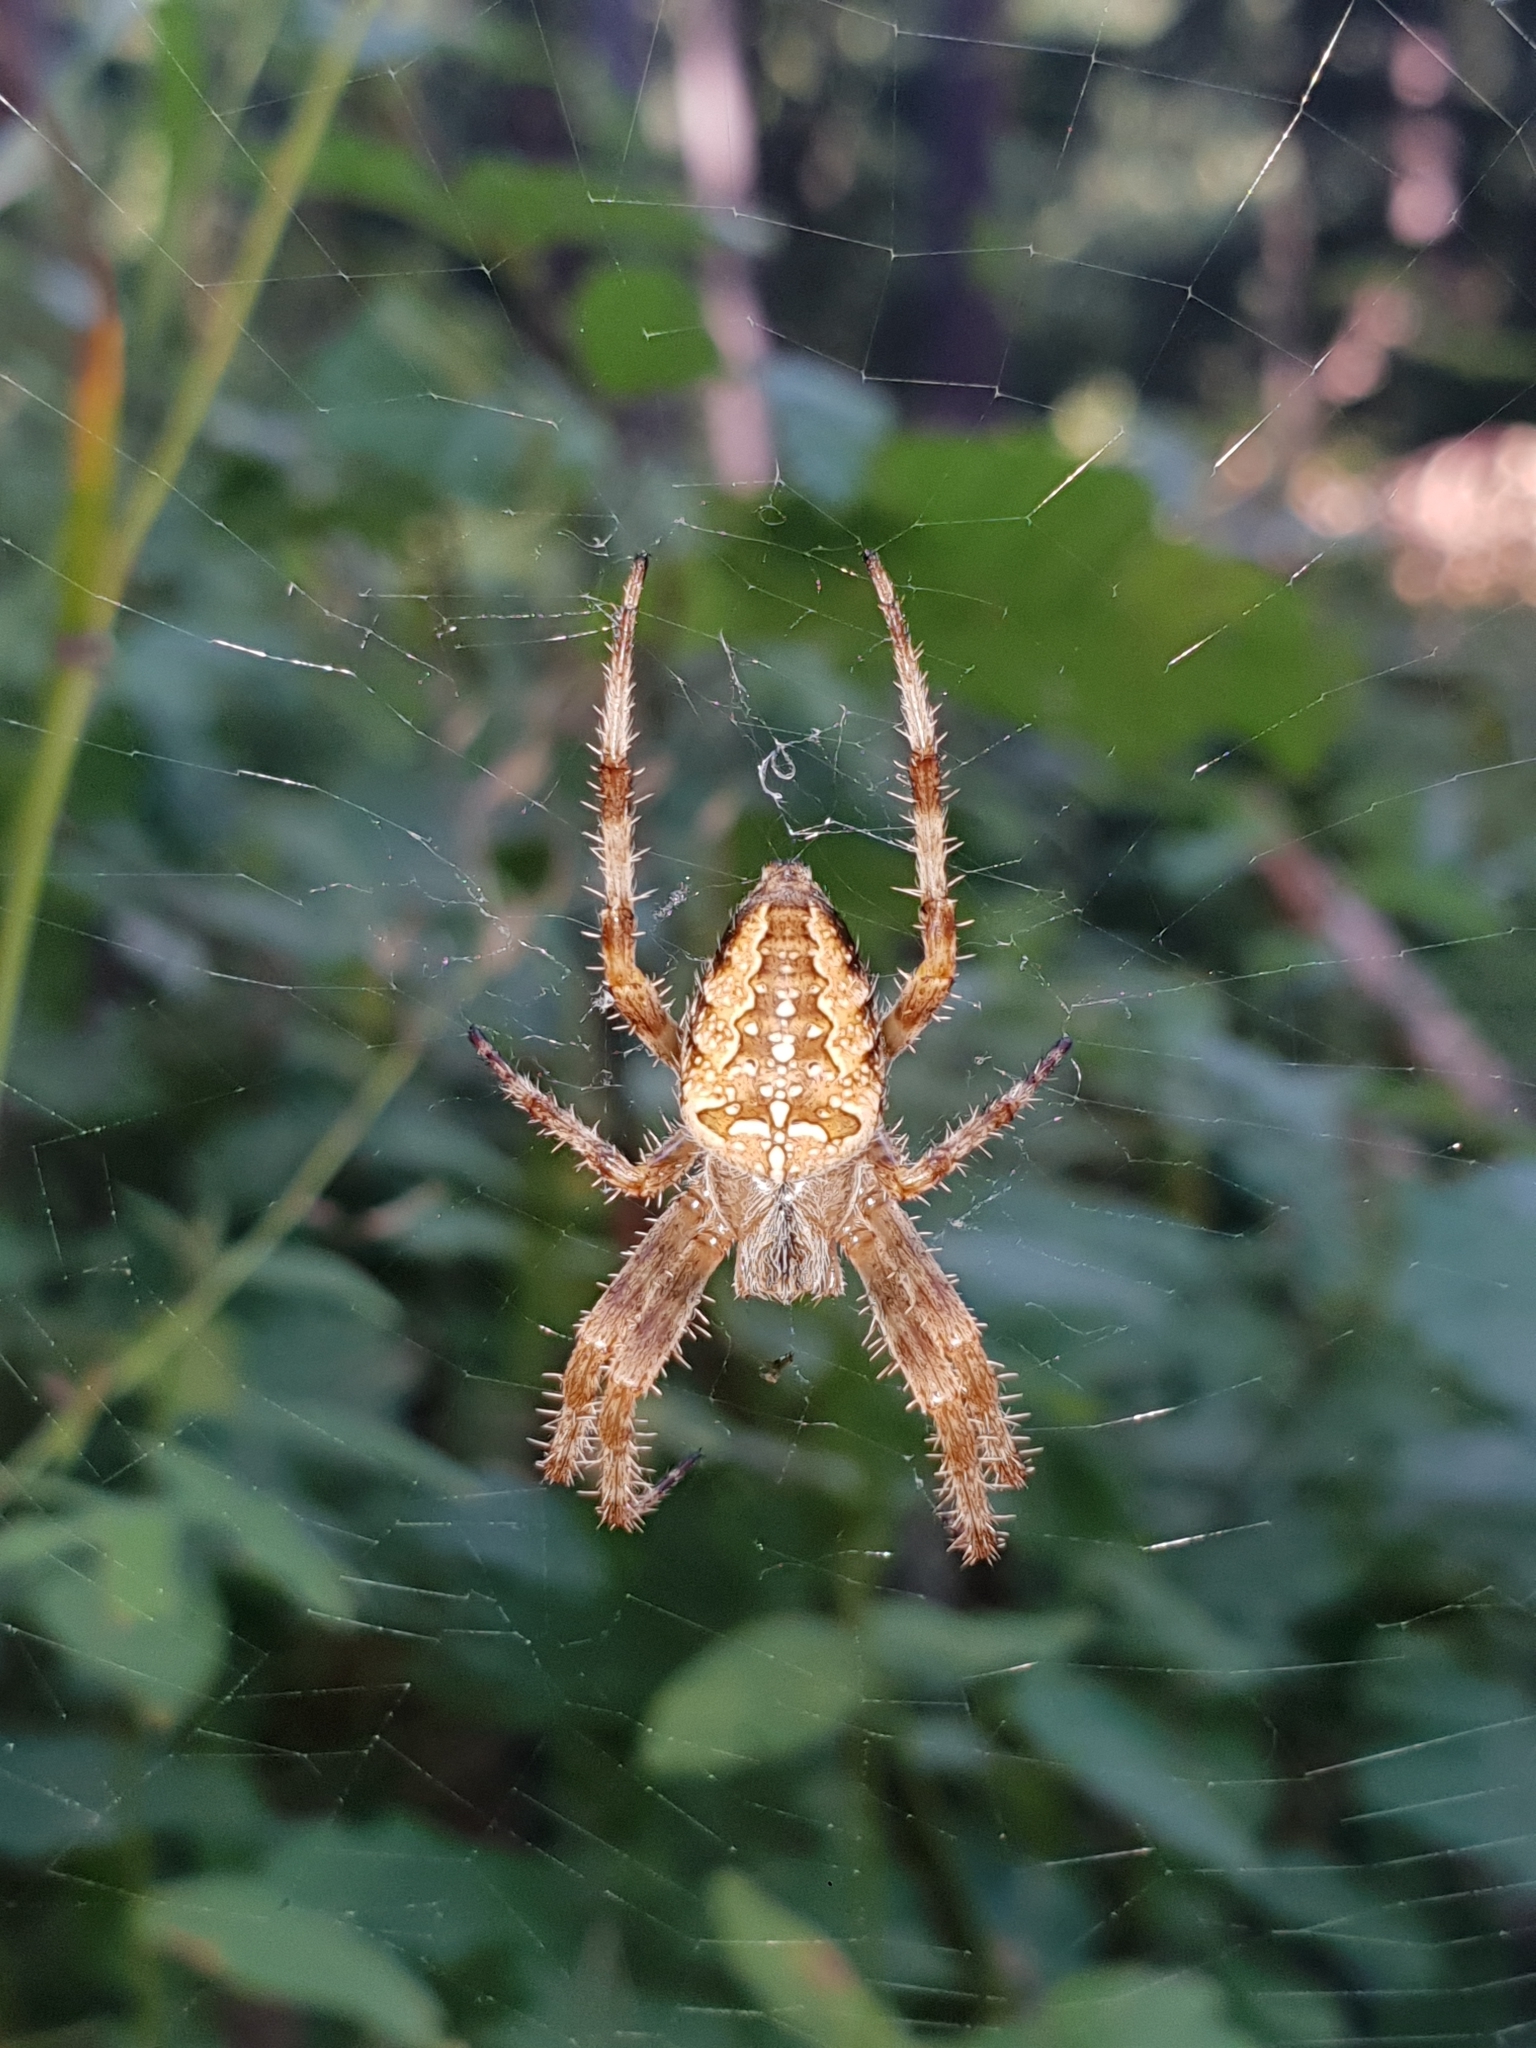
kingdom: Animalia
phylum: Arthropoda
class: Arachnida
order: Araneae
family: Araneidae
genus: Araneus
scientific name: Araneus diadematus
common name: Cross orbweaver
